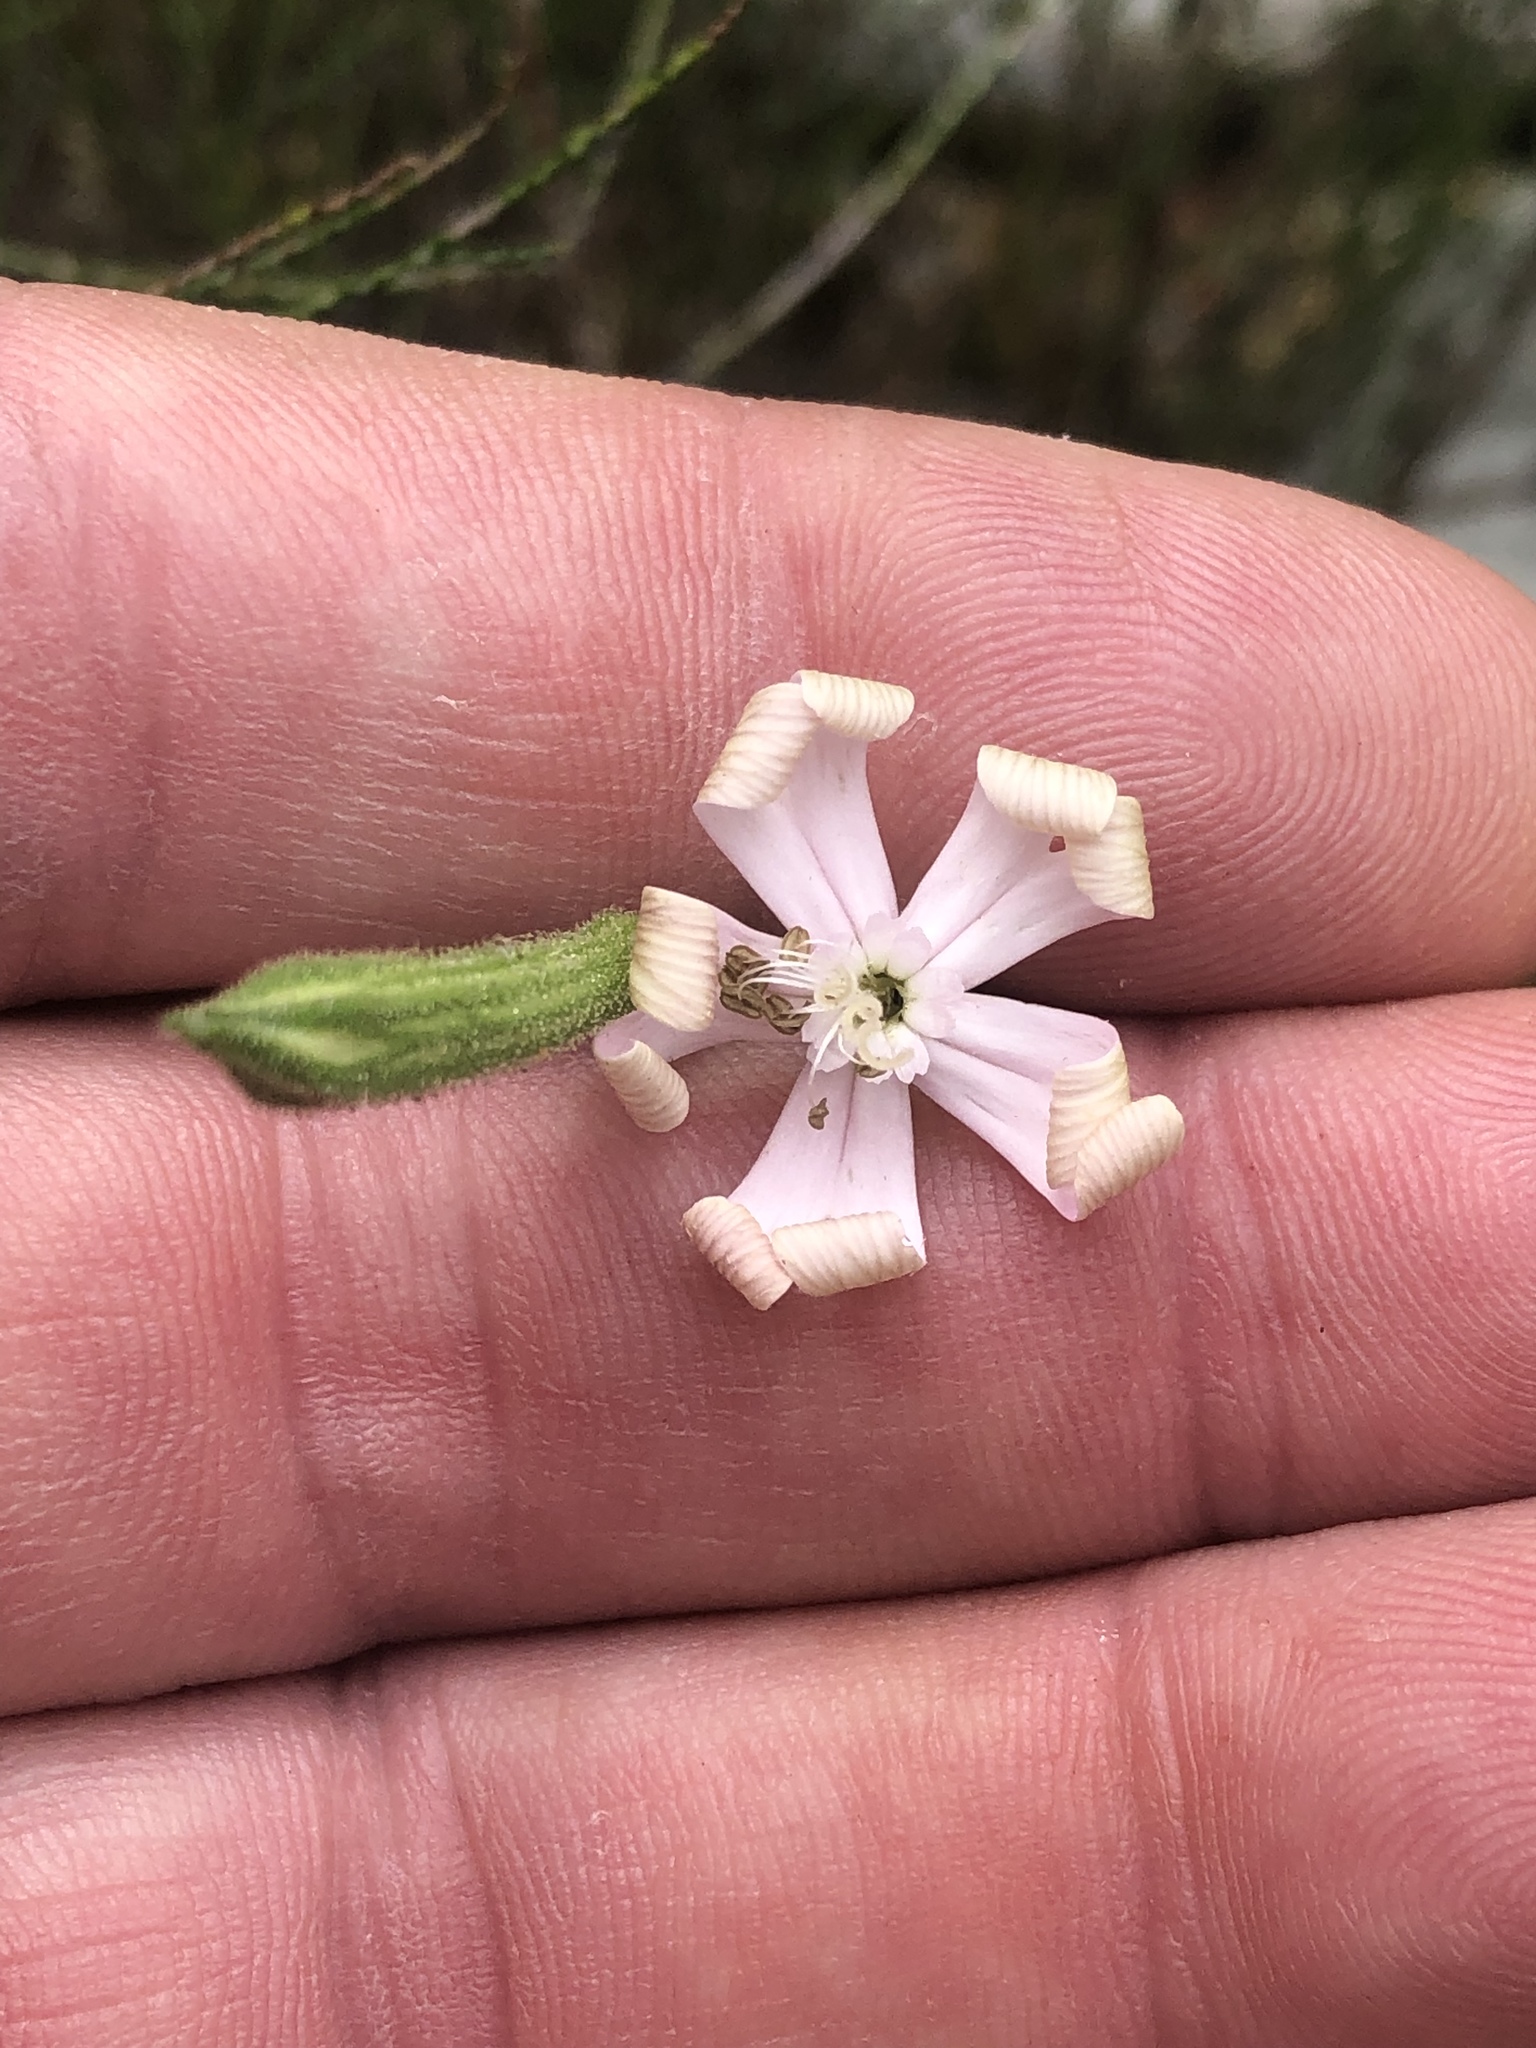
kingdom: Plantae
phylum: Tracheophyta
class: Magnoliopsida
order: Caryophyllales
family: Caryophyllaceae
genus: Silene
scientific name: Silene undulata
